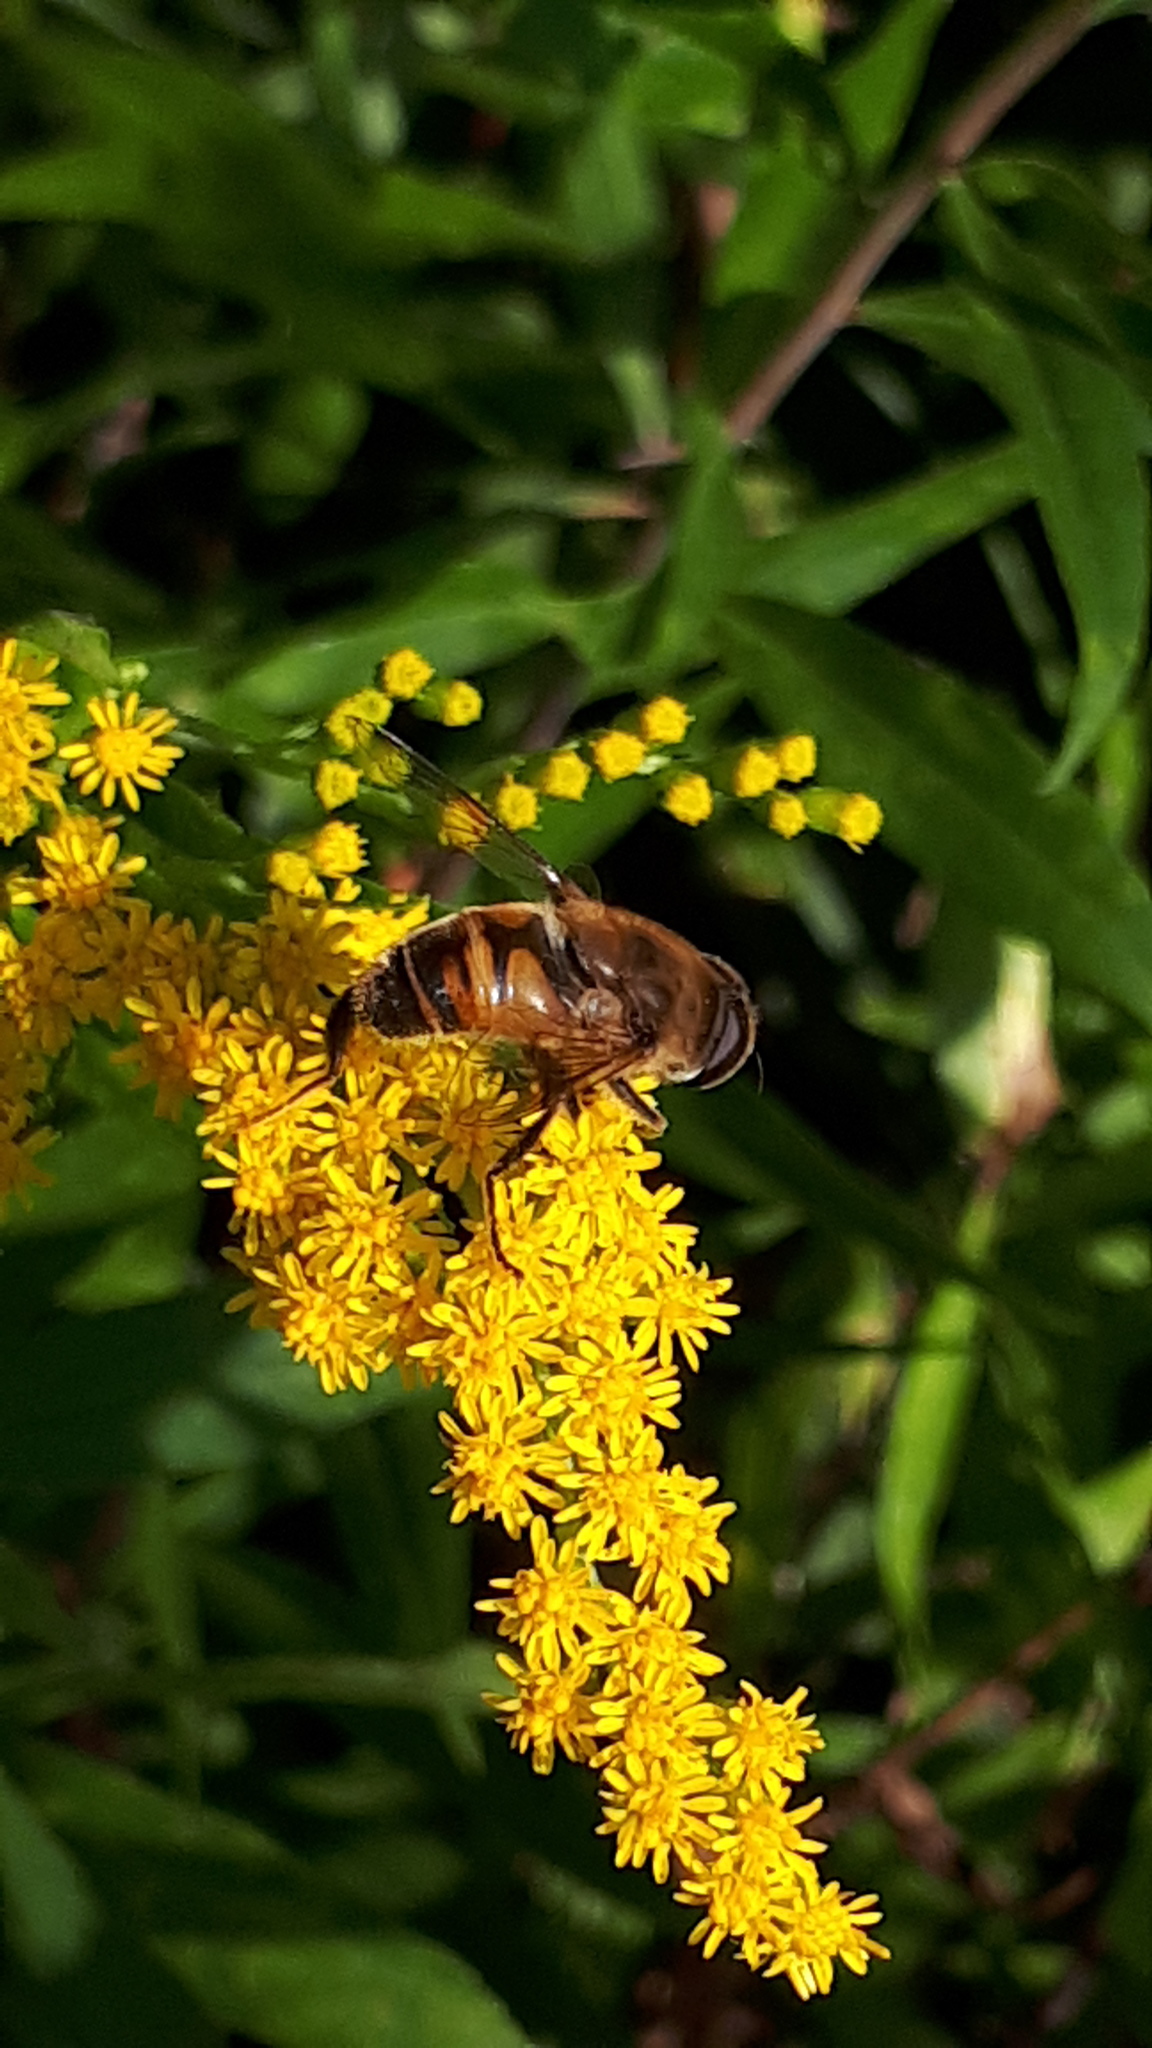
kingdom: Animalia
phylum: Arthropoda
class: Insecta
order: Diptera
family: Syrphidae
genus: Eristalis
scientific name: Eristalis tenax
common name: Drone fly
